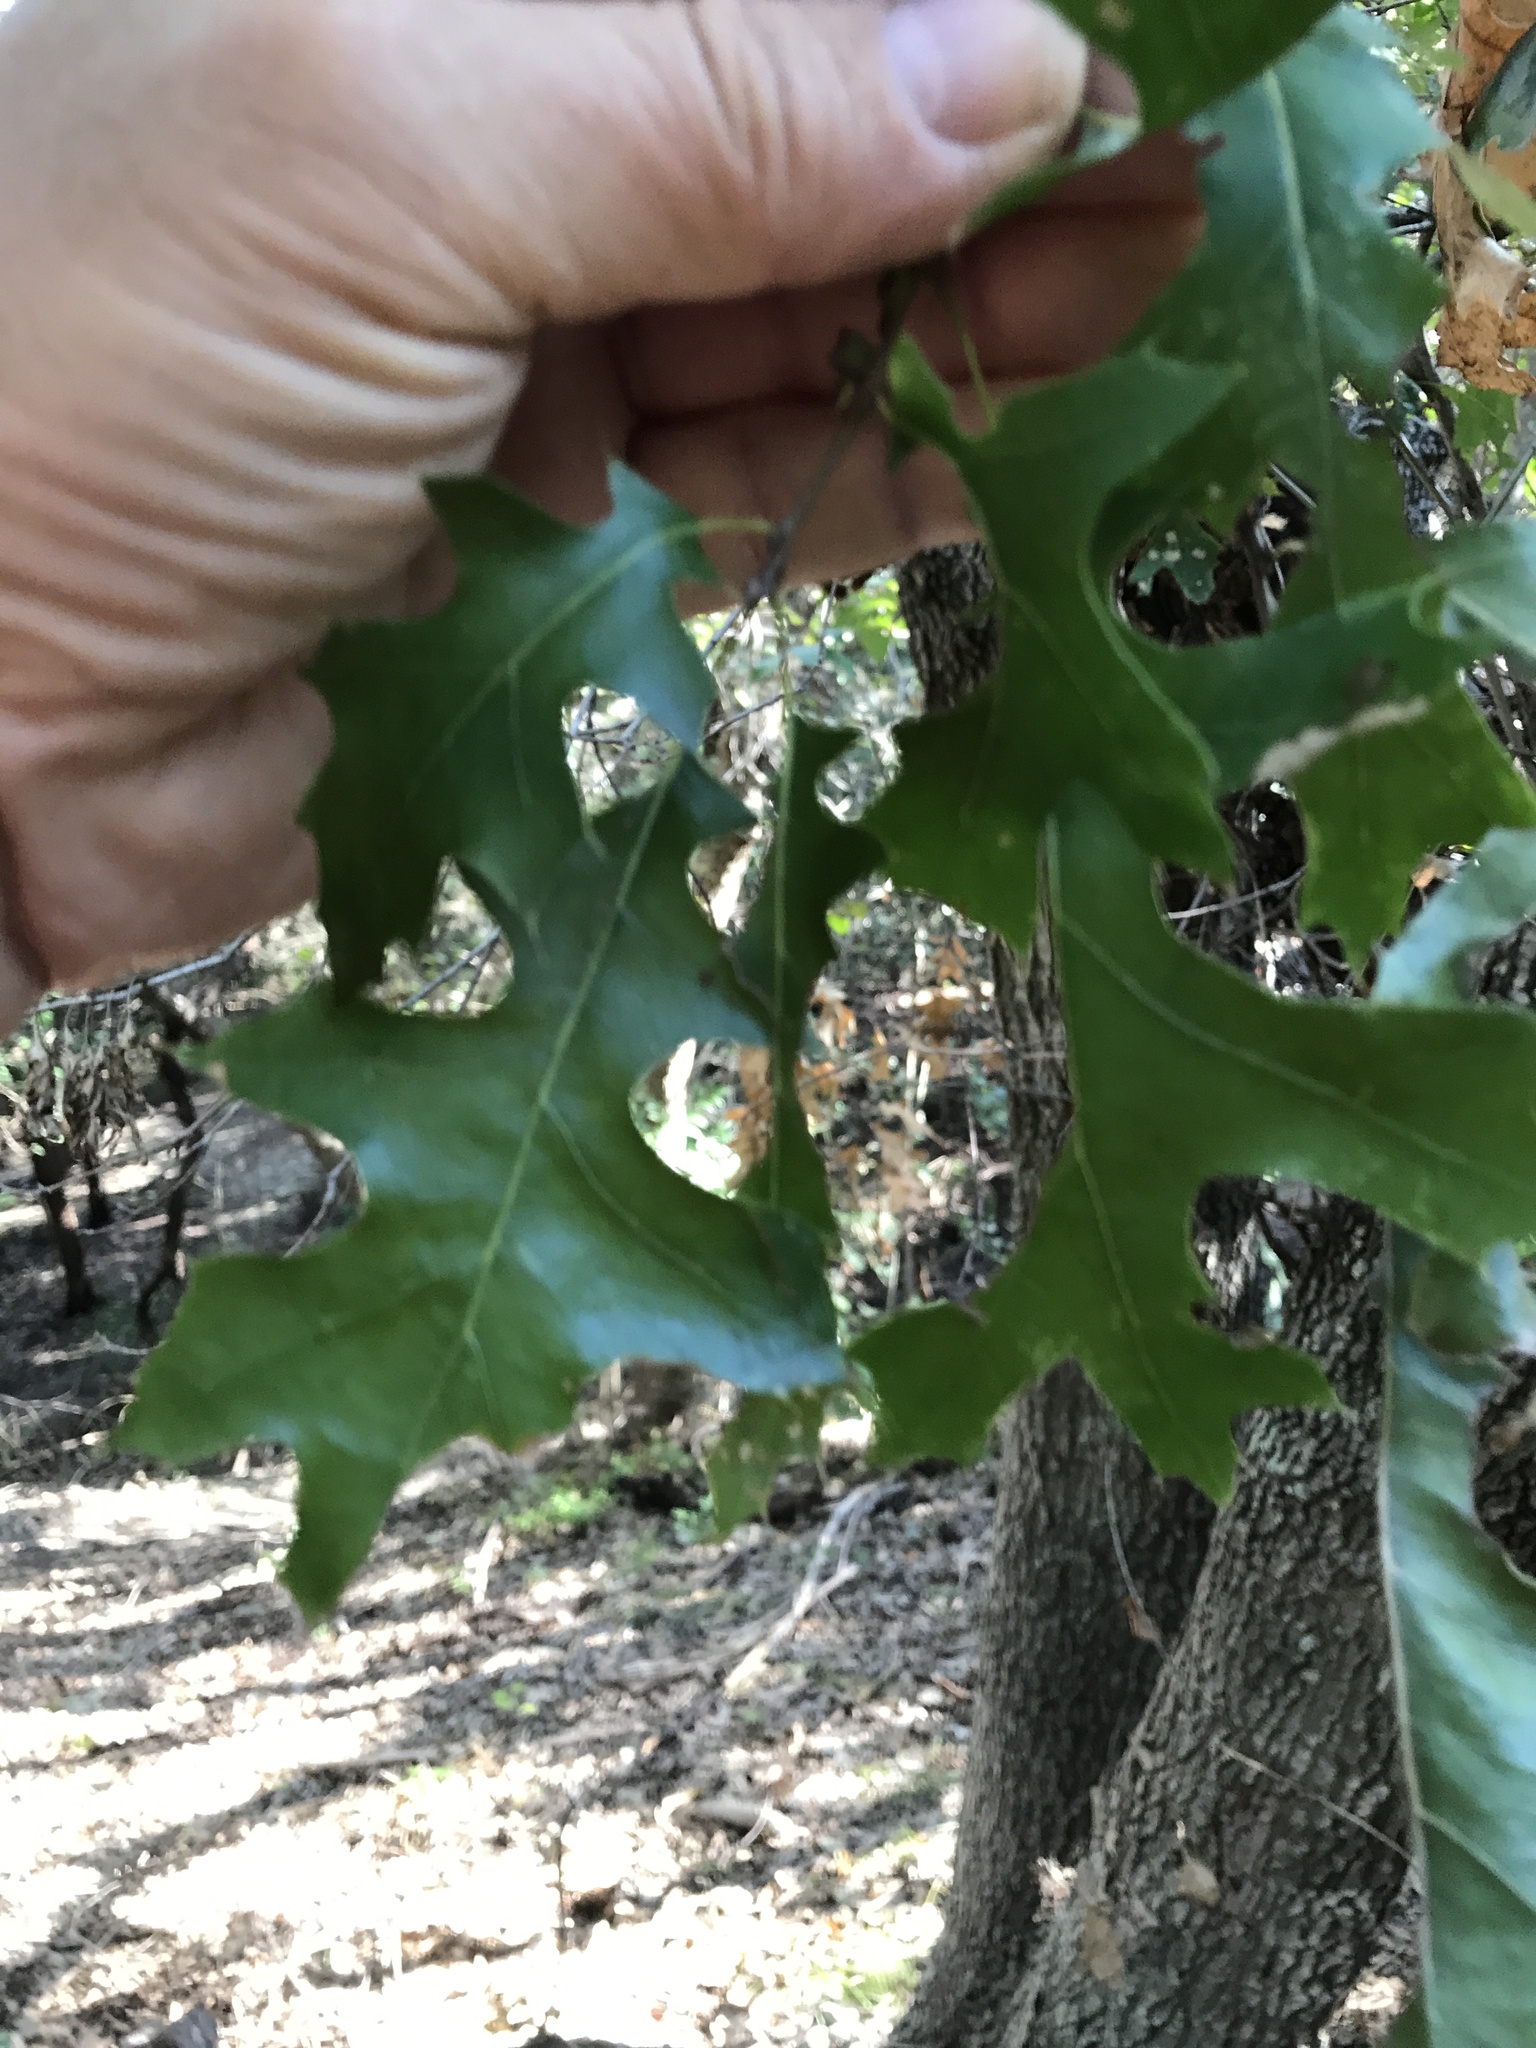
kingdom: Plantae
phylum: Tracheophyta
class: Magnoliopsida
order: Fagales
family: Fagaceae
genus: Quercus
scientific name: Quercus buckleyi
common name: Buckley oak
